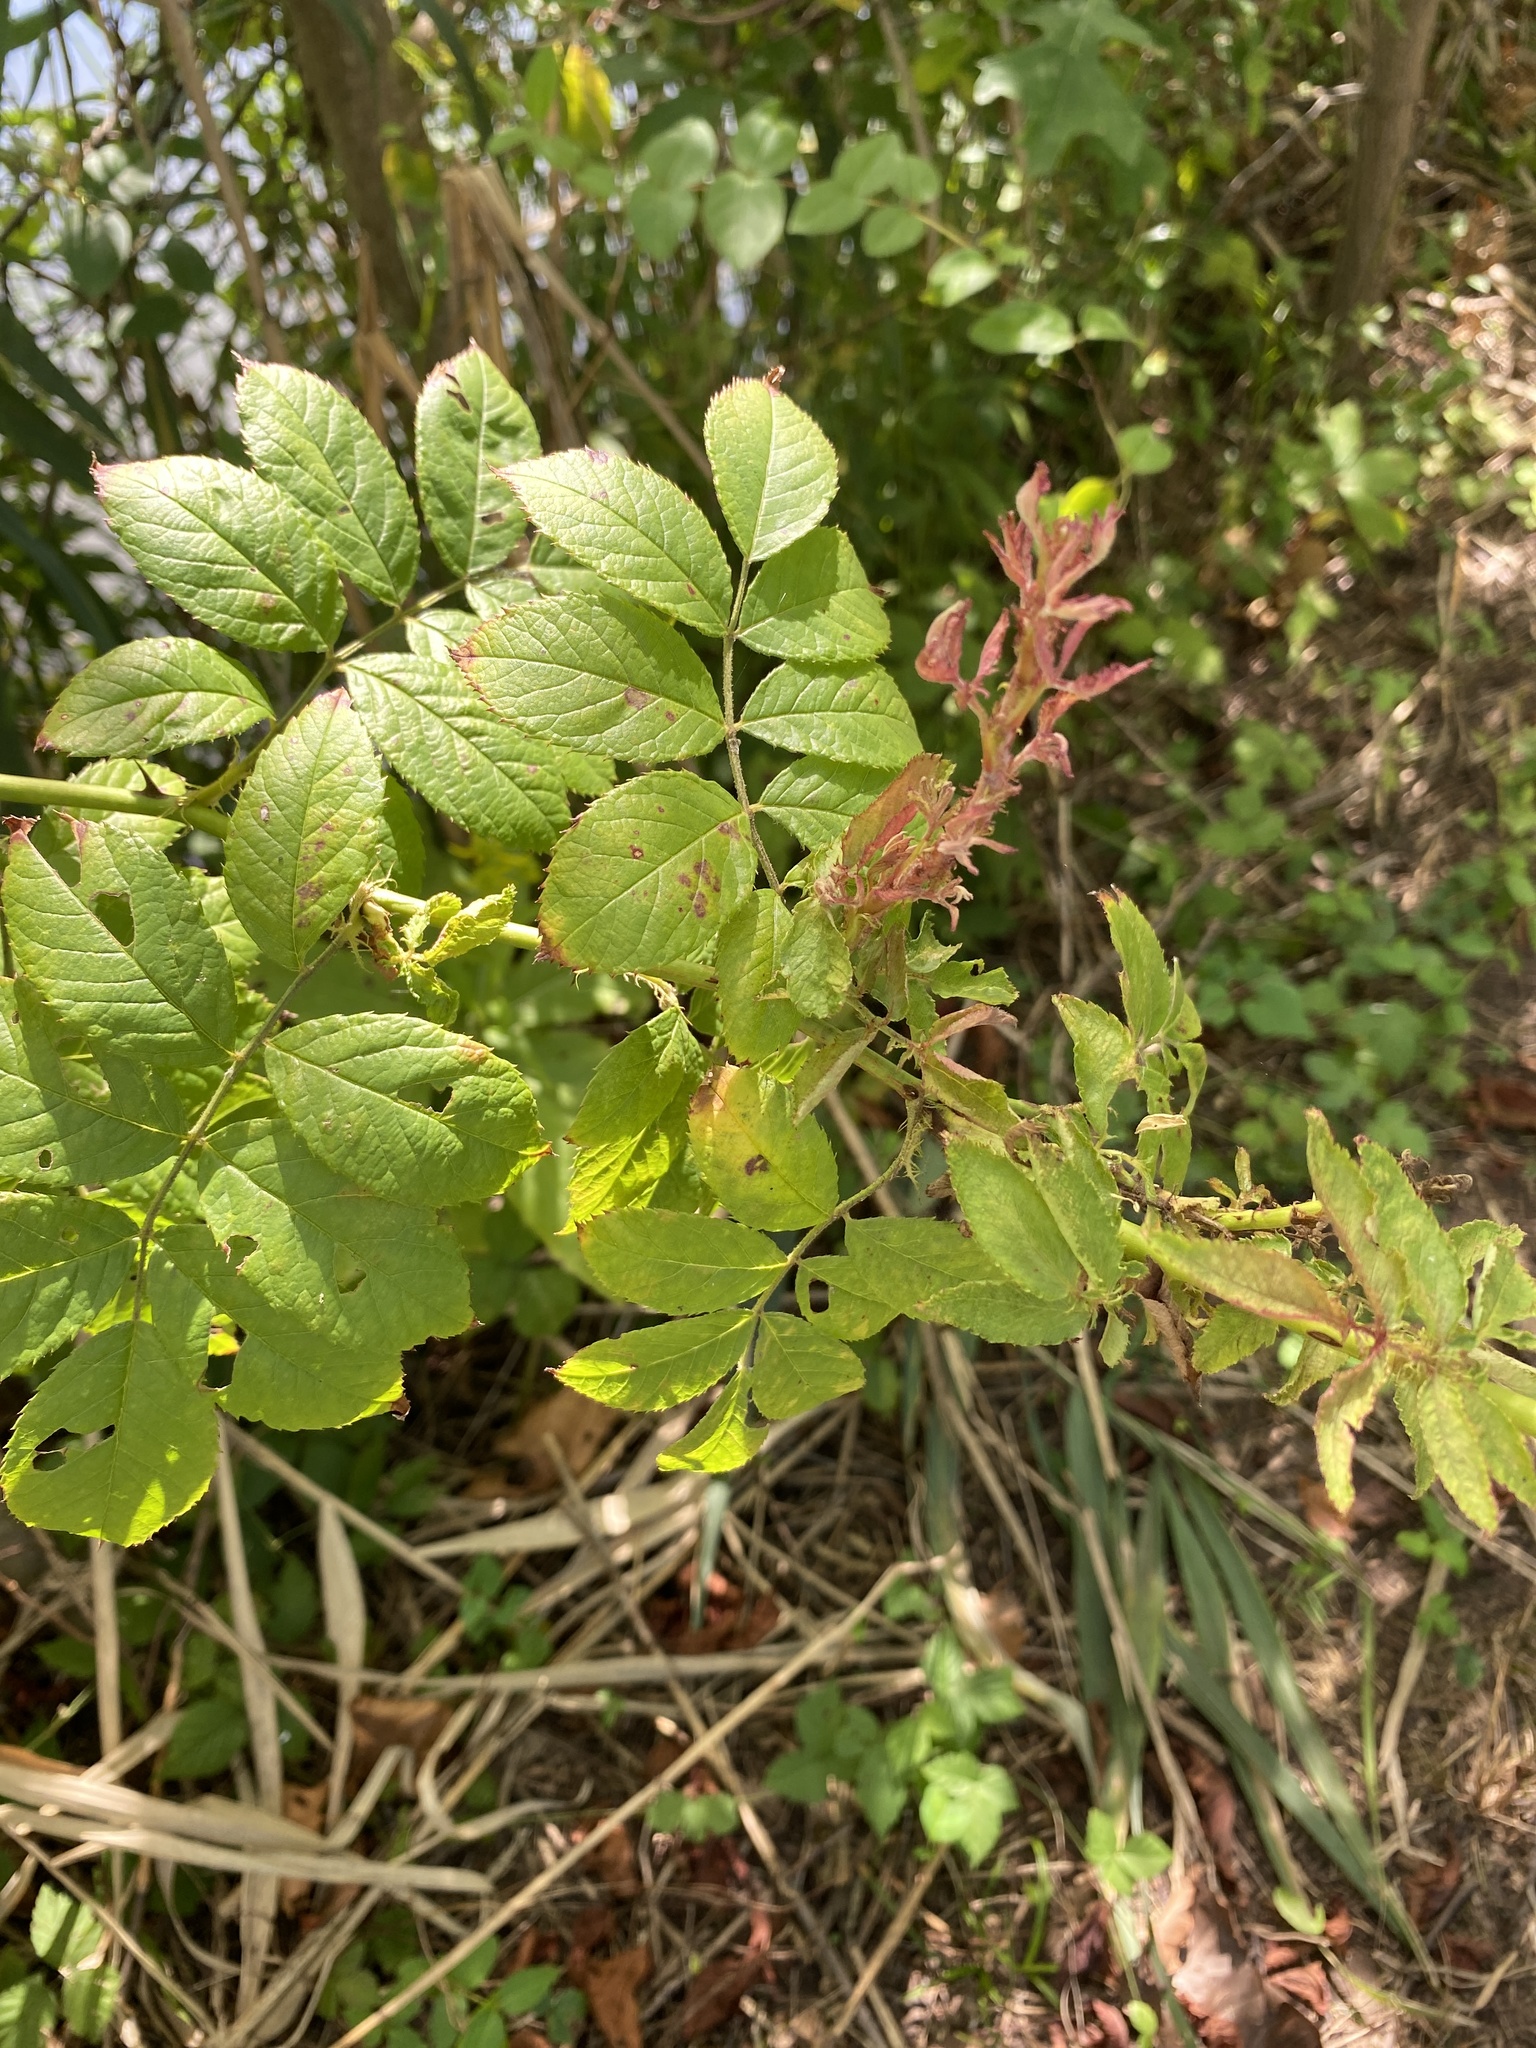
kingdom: Viruses
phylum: Negarnaviricota
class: Ellioviricetes
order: Bunyavirales
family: Fimoviridae
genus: Emaravirus
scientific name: Emaravirus rosae
